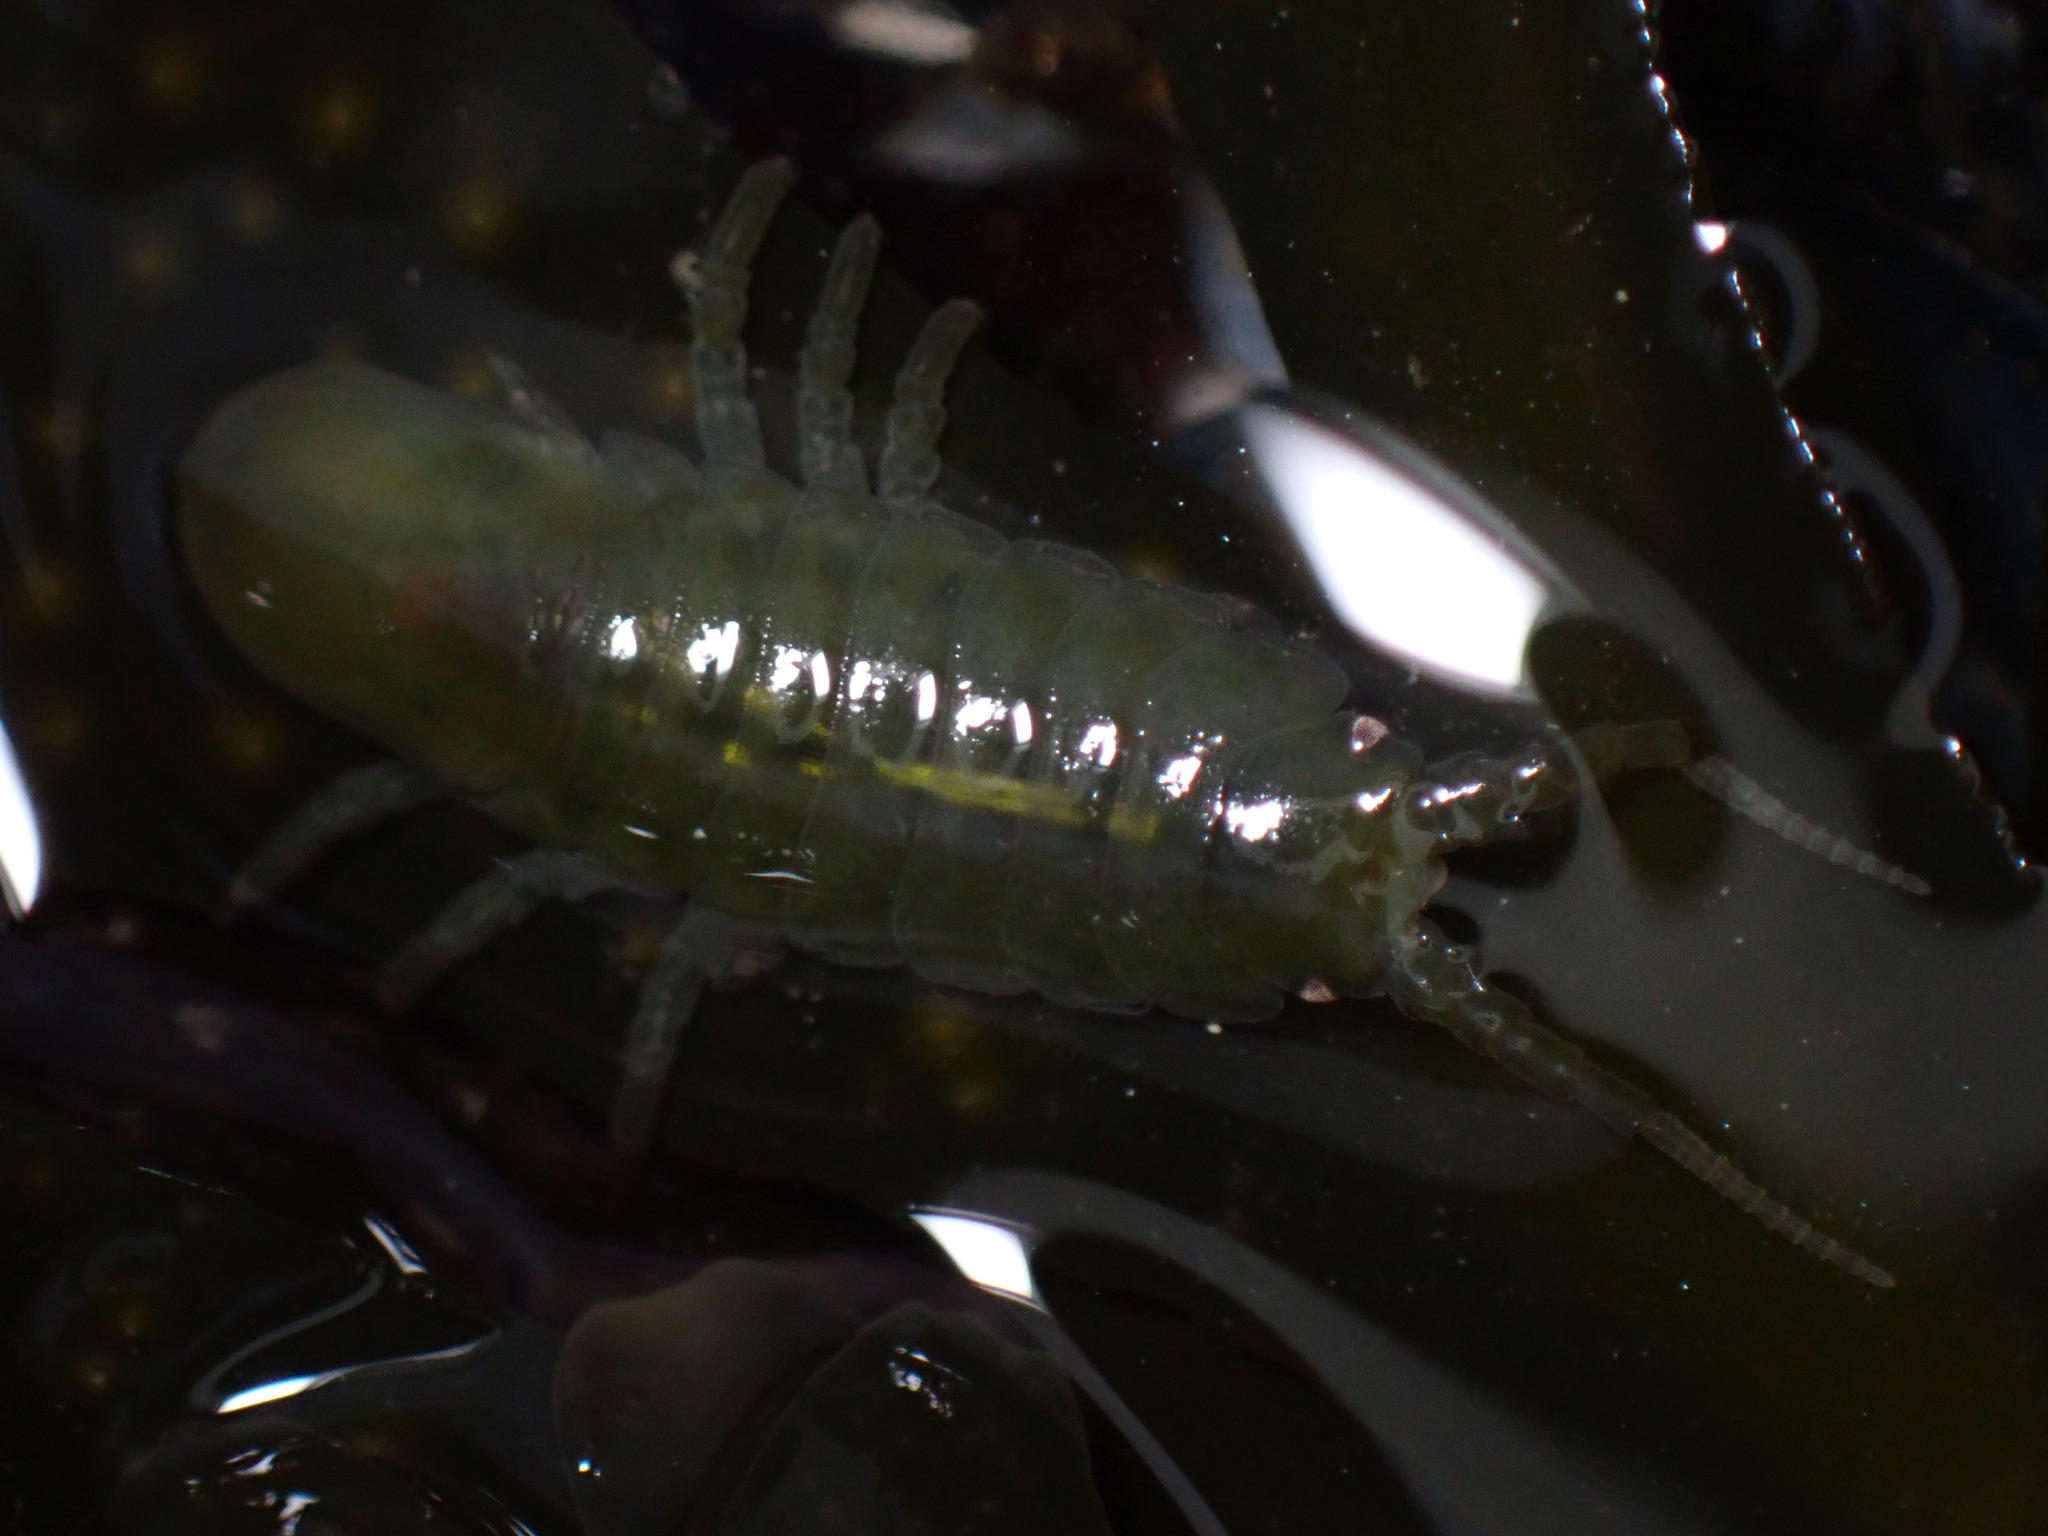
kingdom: Animalia
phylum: Arthropoda
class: Malacostraca
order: Isopoda
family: Idoteidae
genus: Pentidotea
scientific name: Pentidotea wosnesenskii
